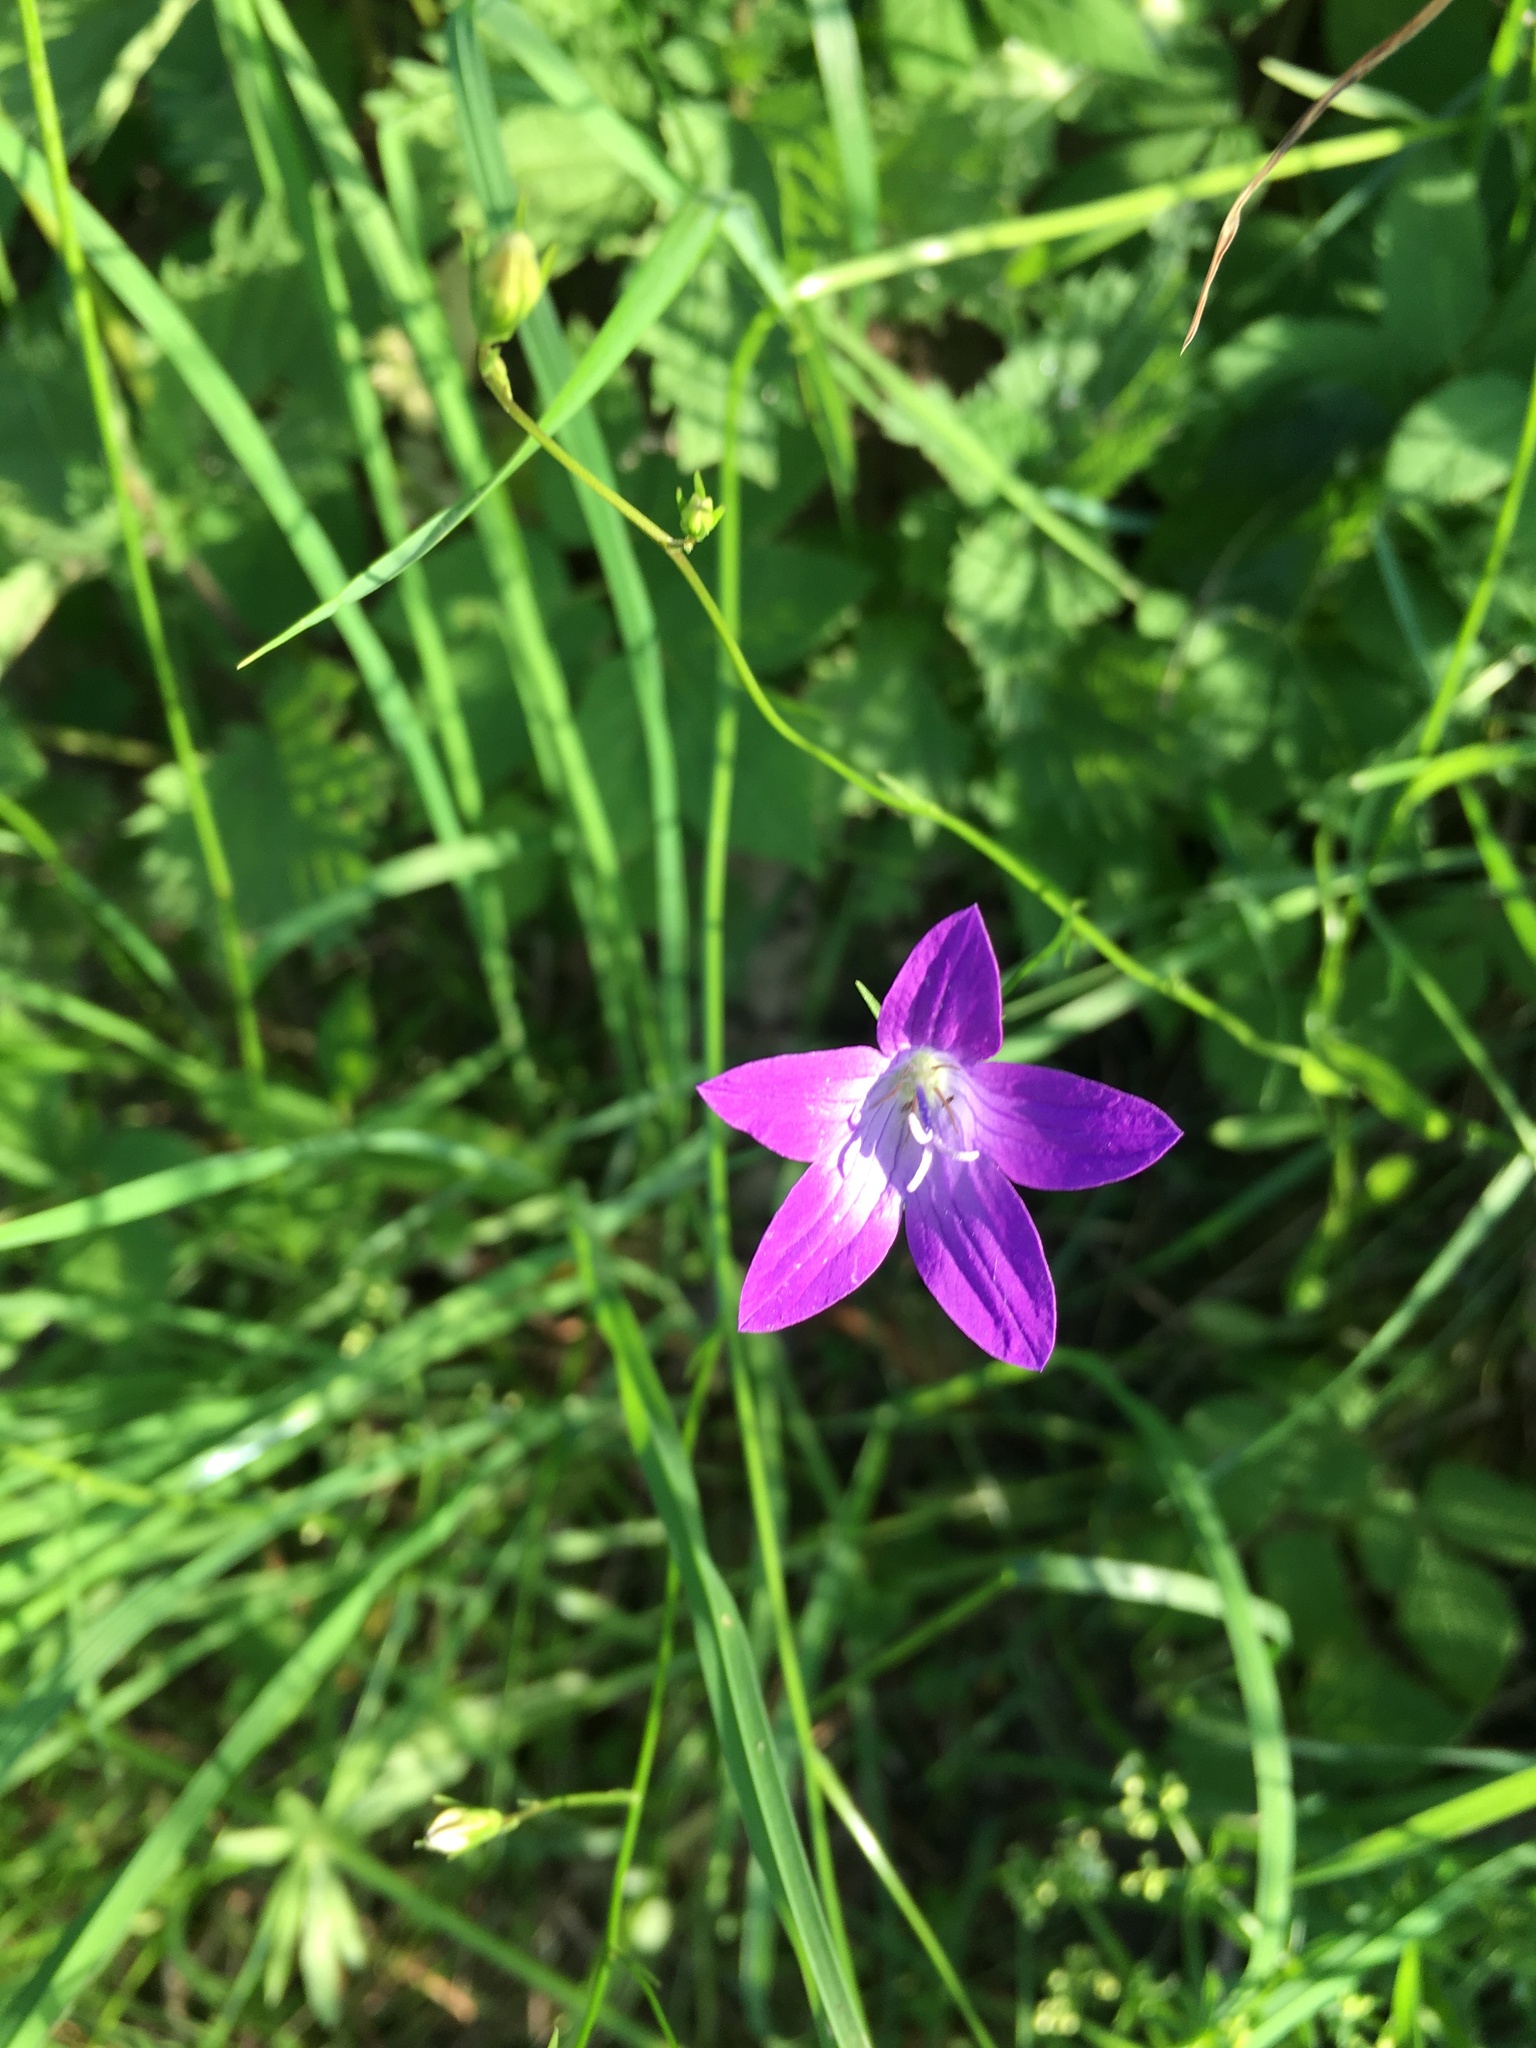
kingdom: Plantae
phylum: Tracheophyta
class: Magnoliopsida
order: Asterales
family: Campanulaceae
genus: Campanula
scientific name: Campanula patula
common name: Spreading bellflower
